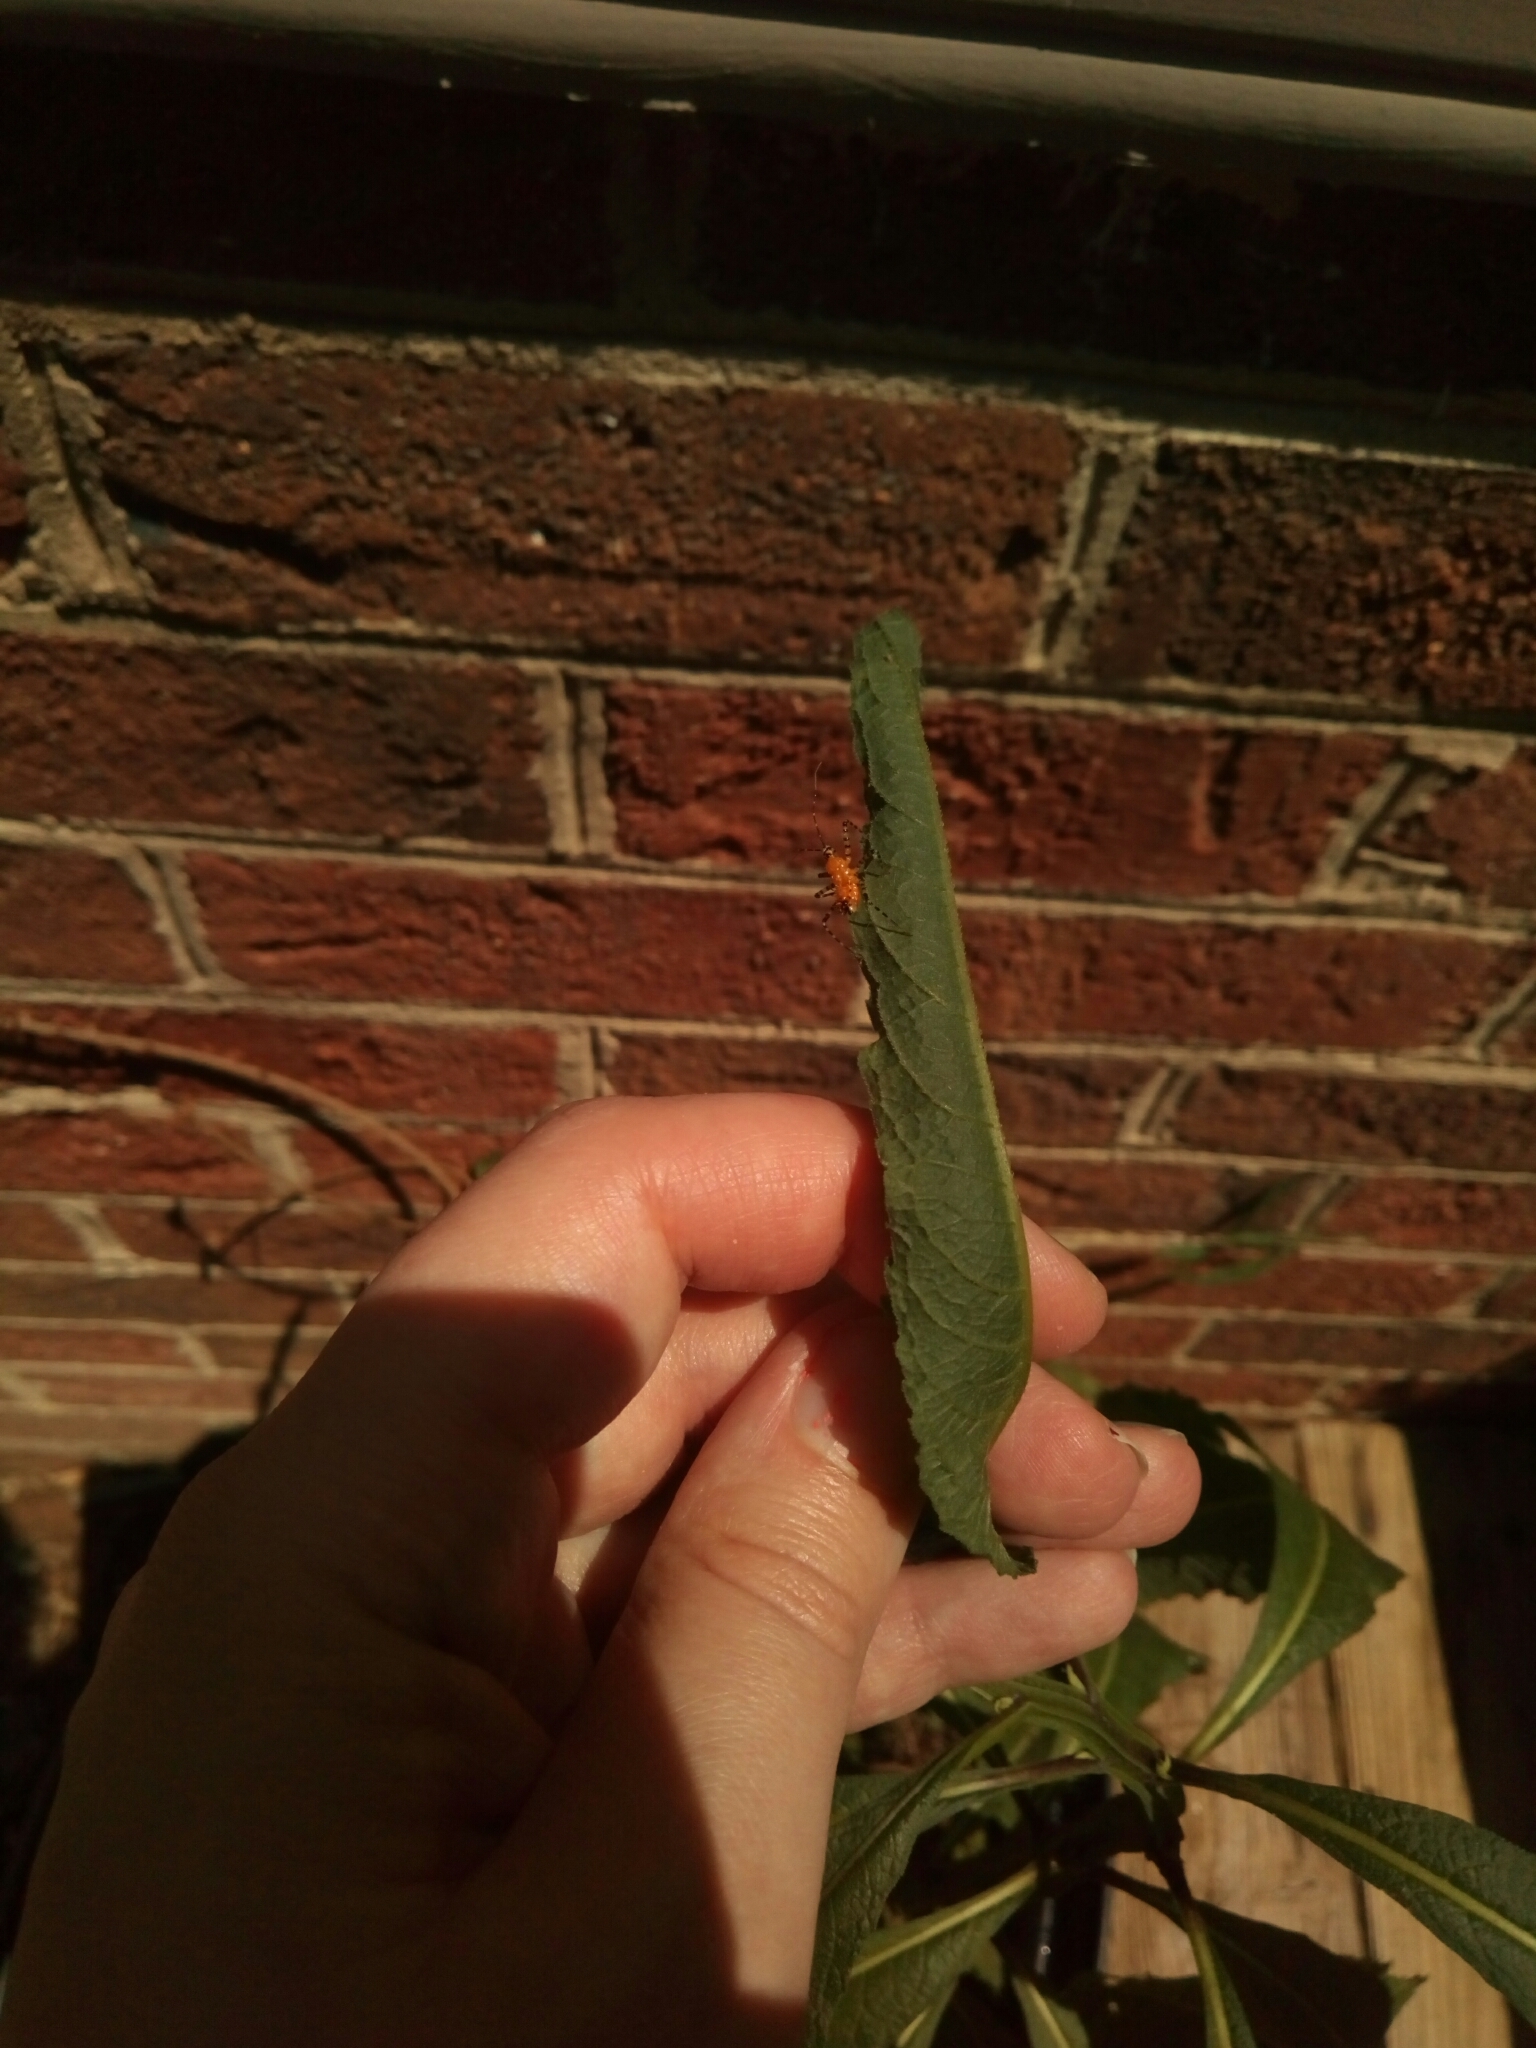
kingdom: Animalia
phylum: Arthropoda
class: Insecta
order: Hemiptera
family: Reduviidae
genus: Pselliopus
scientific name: Pselliopus barberi
